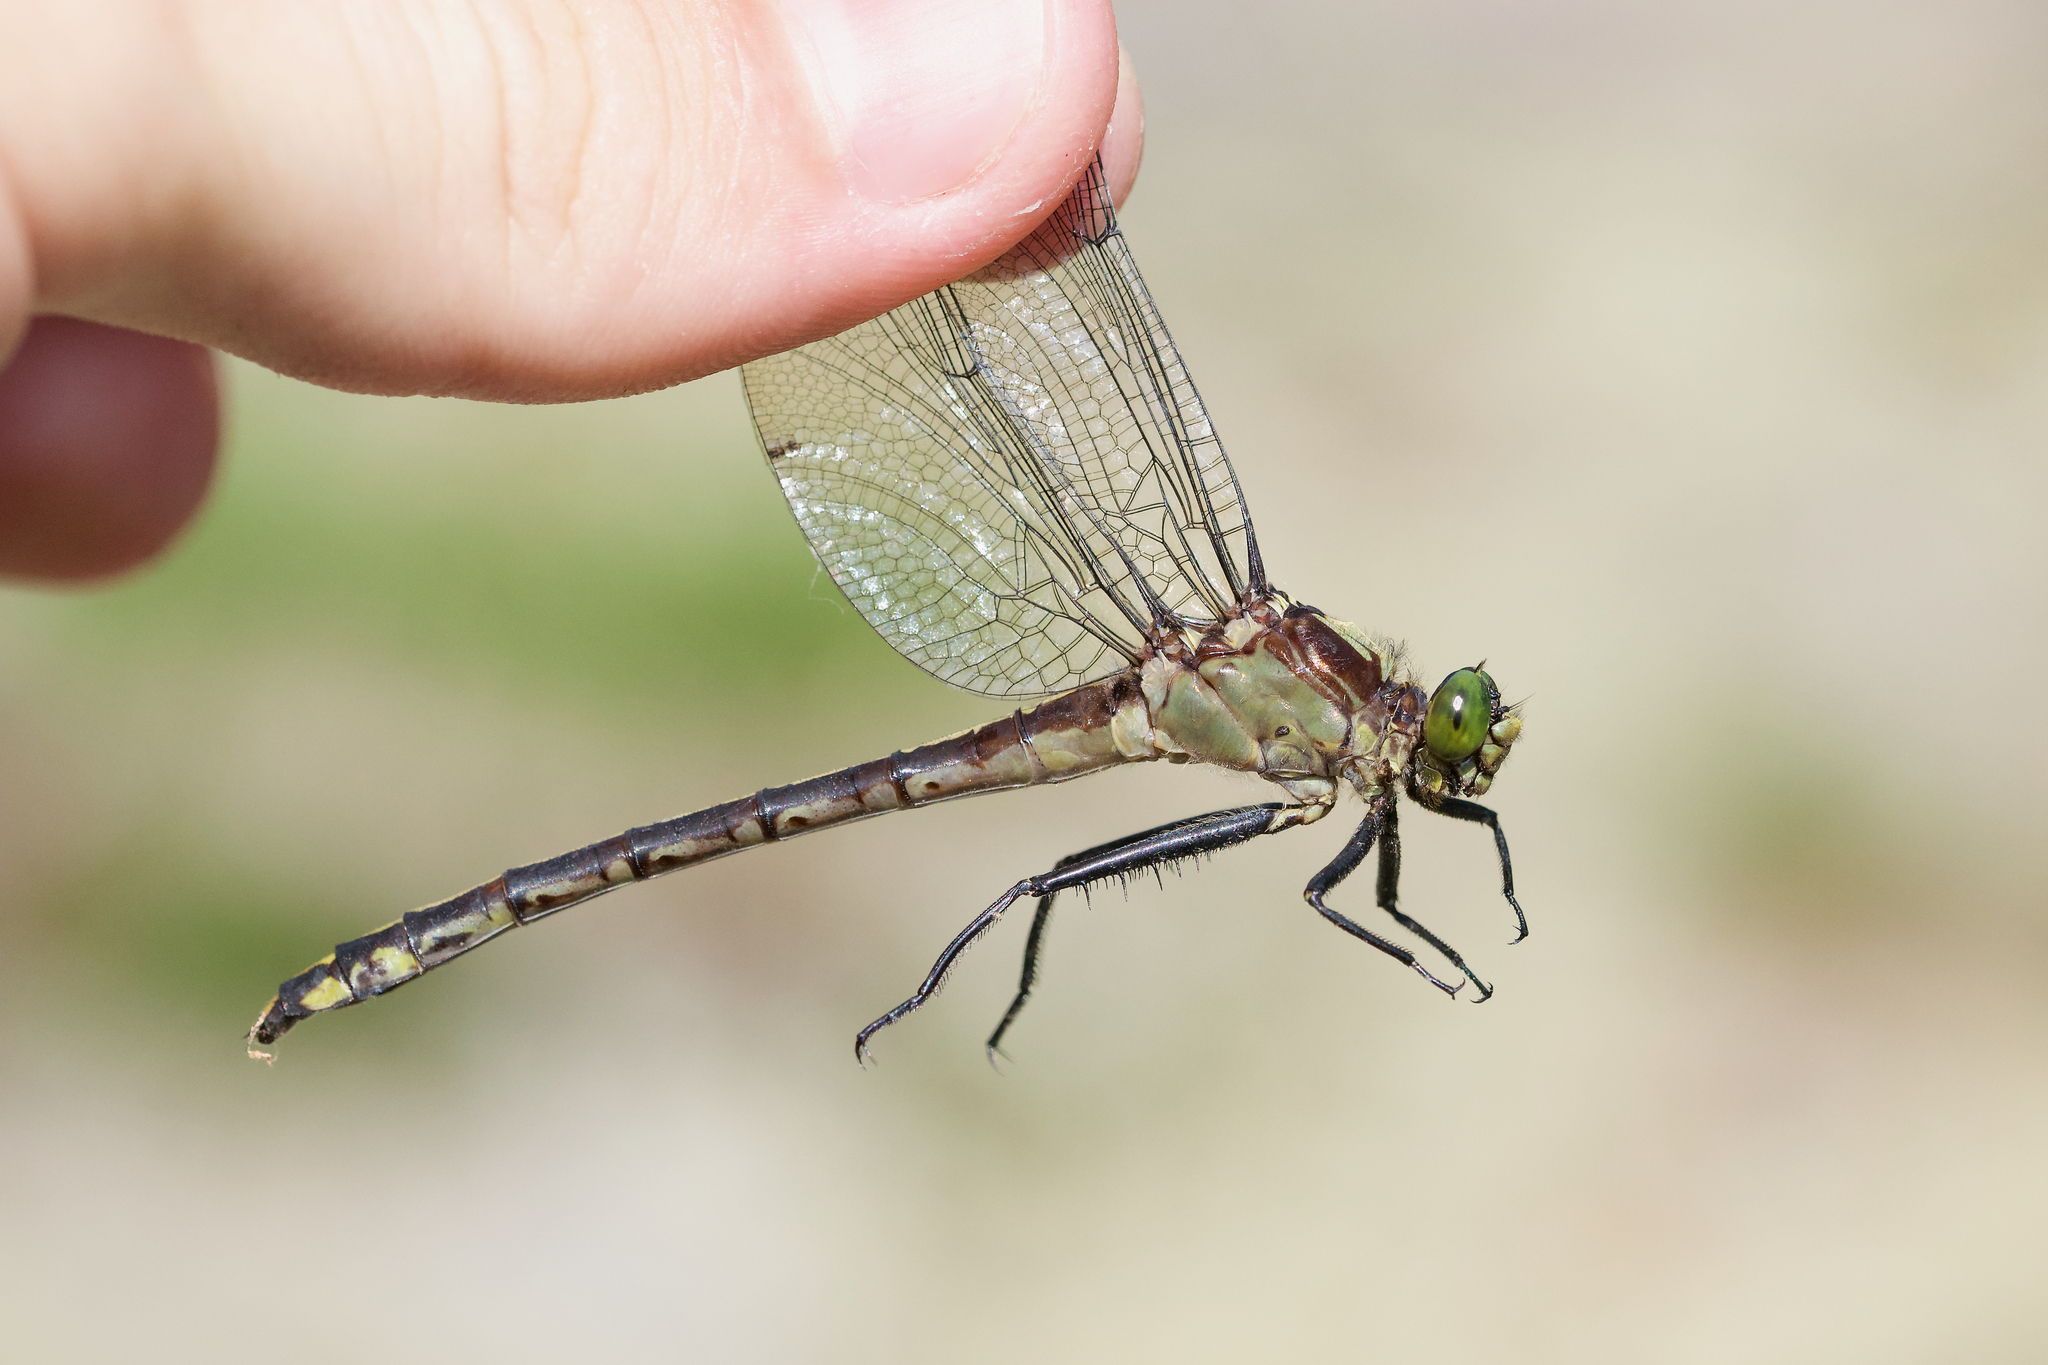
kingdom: Animalia
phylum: Arthropoda
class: Insecta
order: Odonata
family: Gomphidae
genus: Dromogomphus
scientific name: Dromogomphus spinosus
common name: Black-shouldered spinyleg
